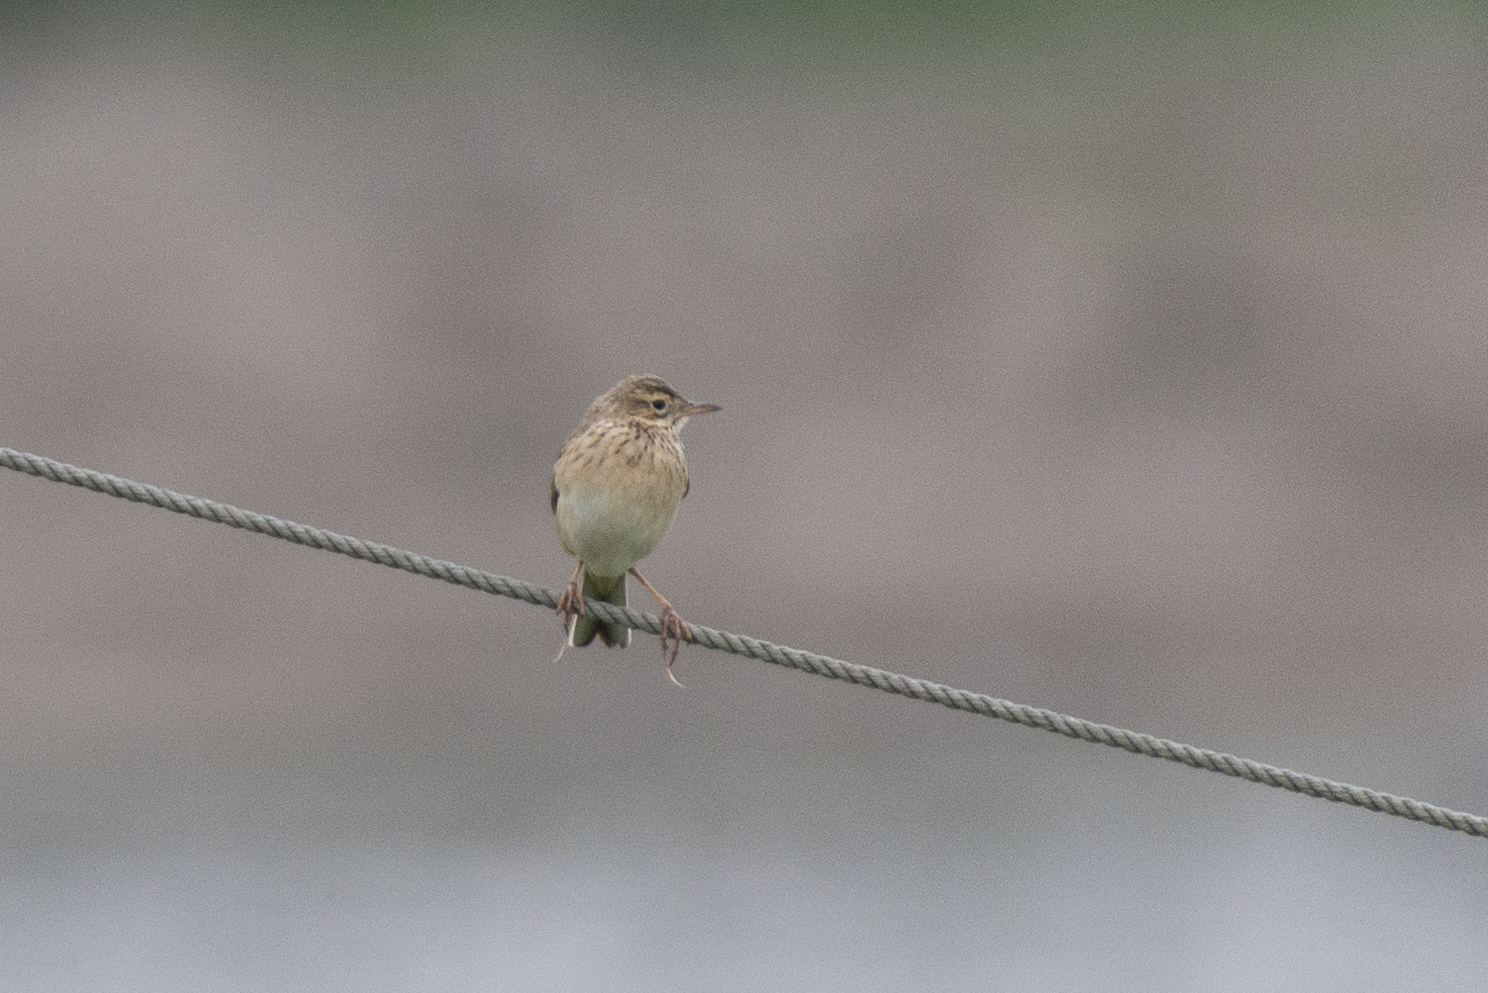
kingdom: Animalia
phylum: Chordata
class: Aves
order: Passeriformes
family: Motacillidae
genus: Anthus
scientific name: Anthus richardi
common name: Richard's pipit
